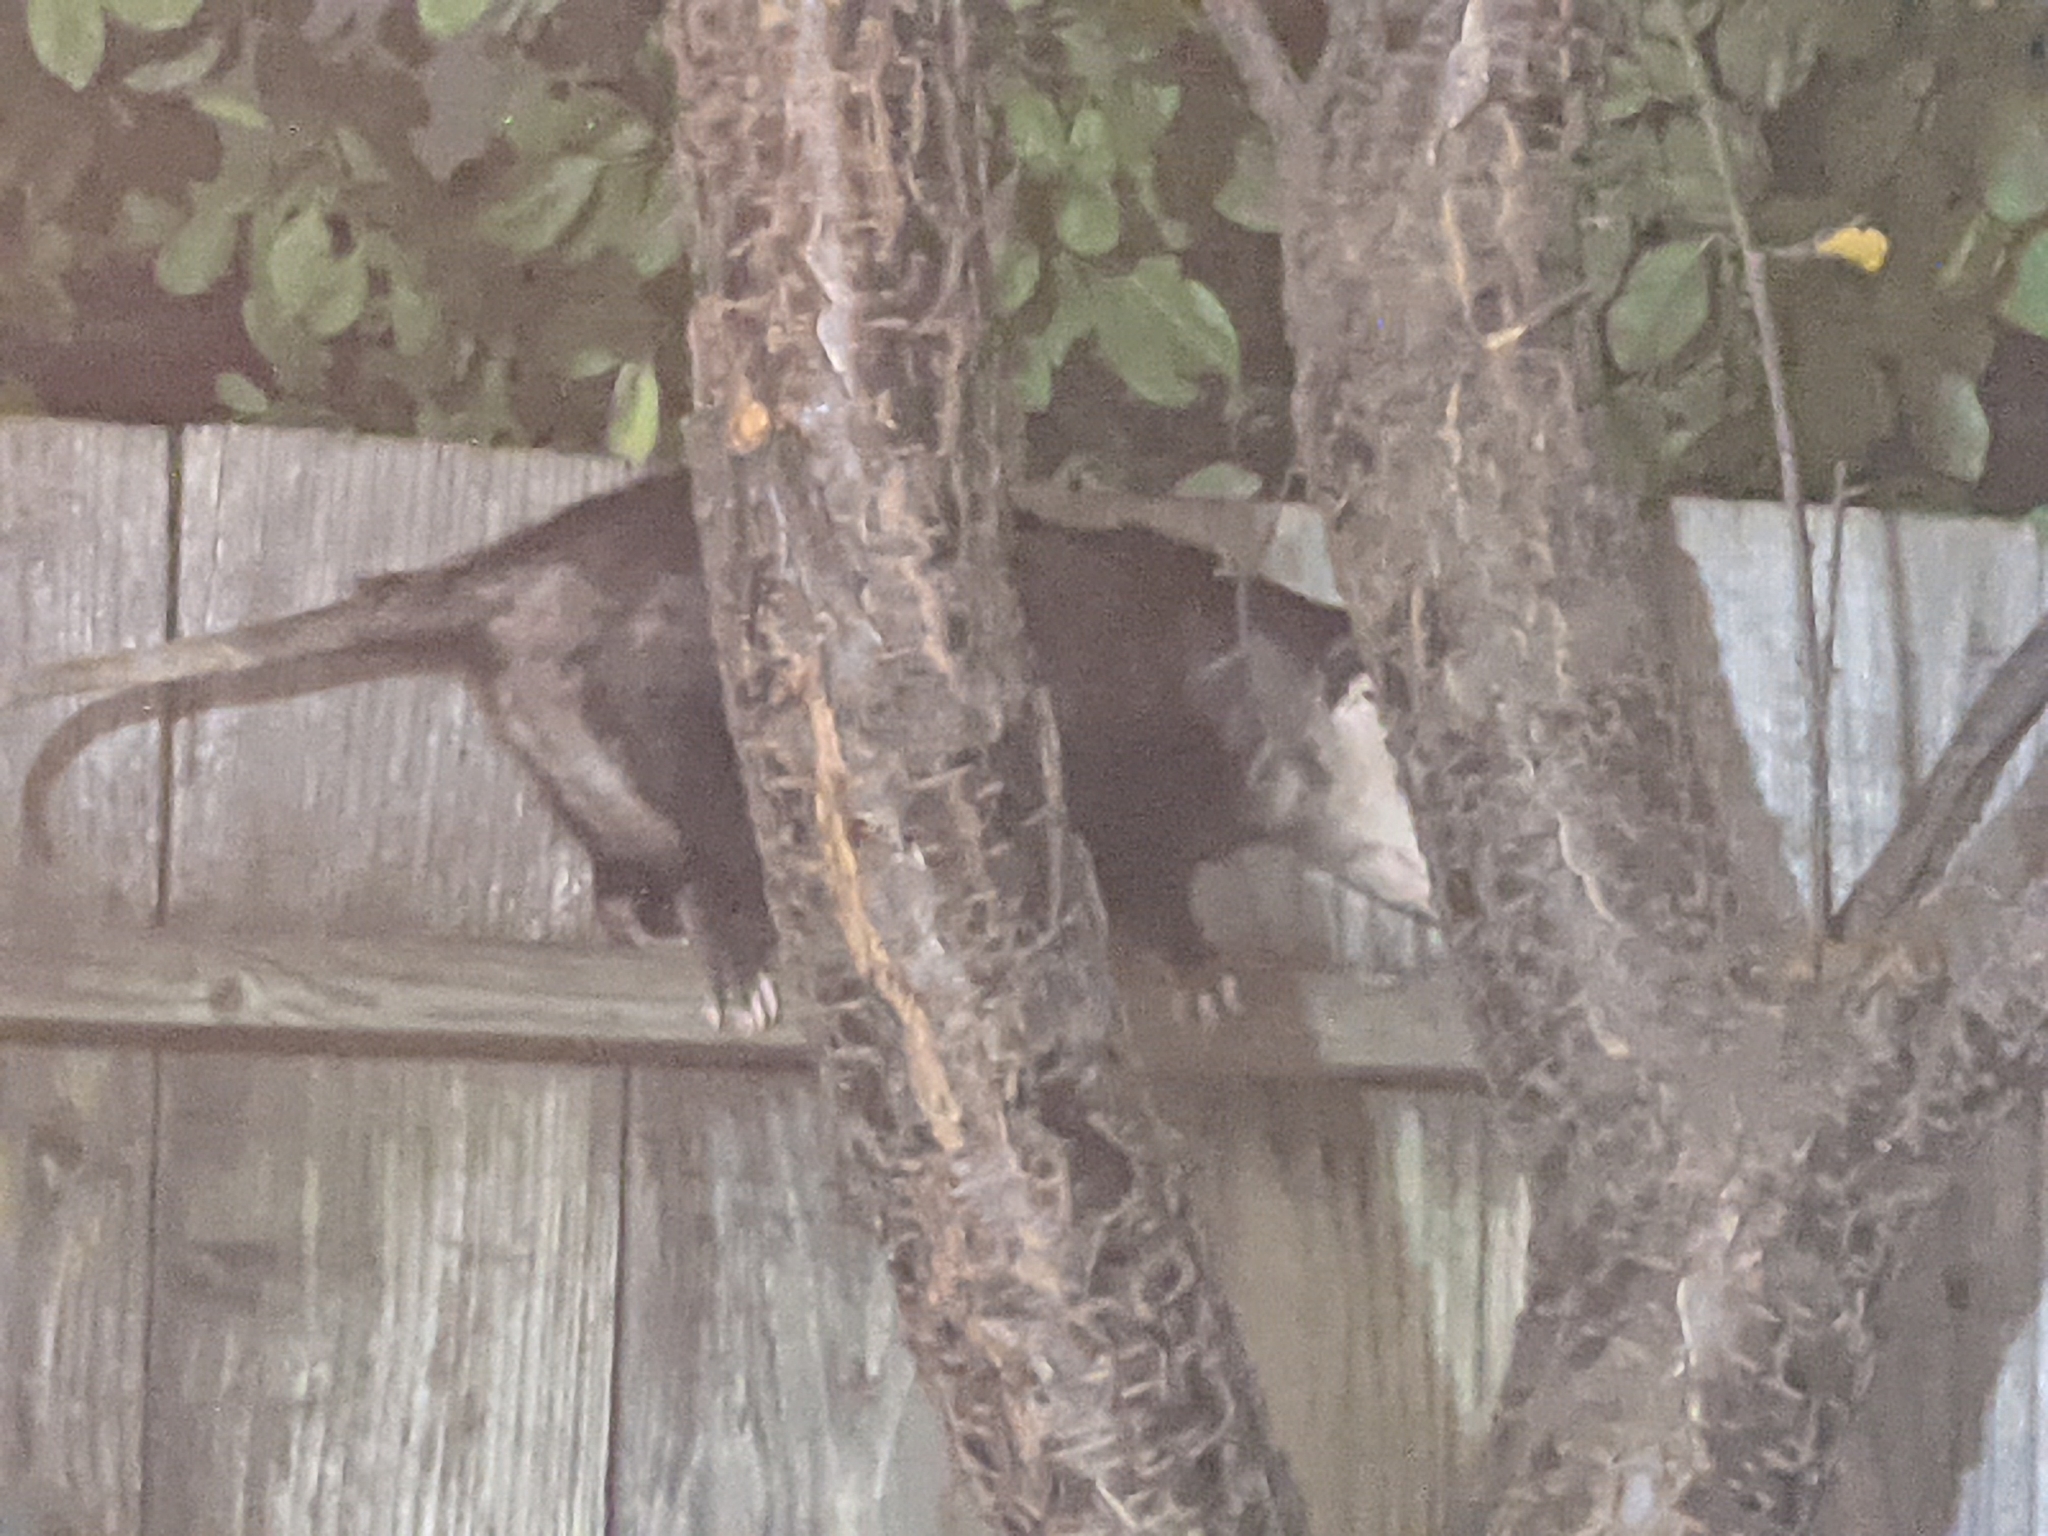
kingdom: Animalia
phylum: Chordata
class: Mammalia
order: Didelphimorphia
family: Didelphidae
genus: Didelphis
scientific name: Didelphis virginiana
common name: Virginia opossum
